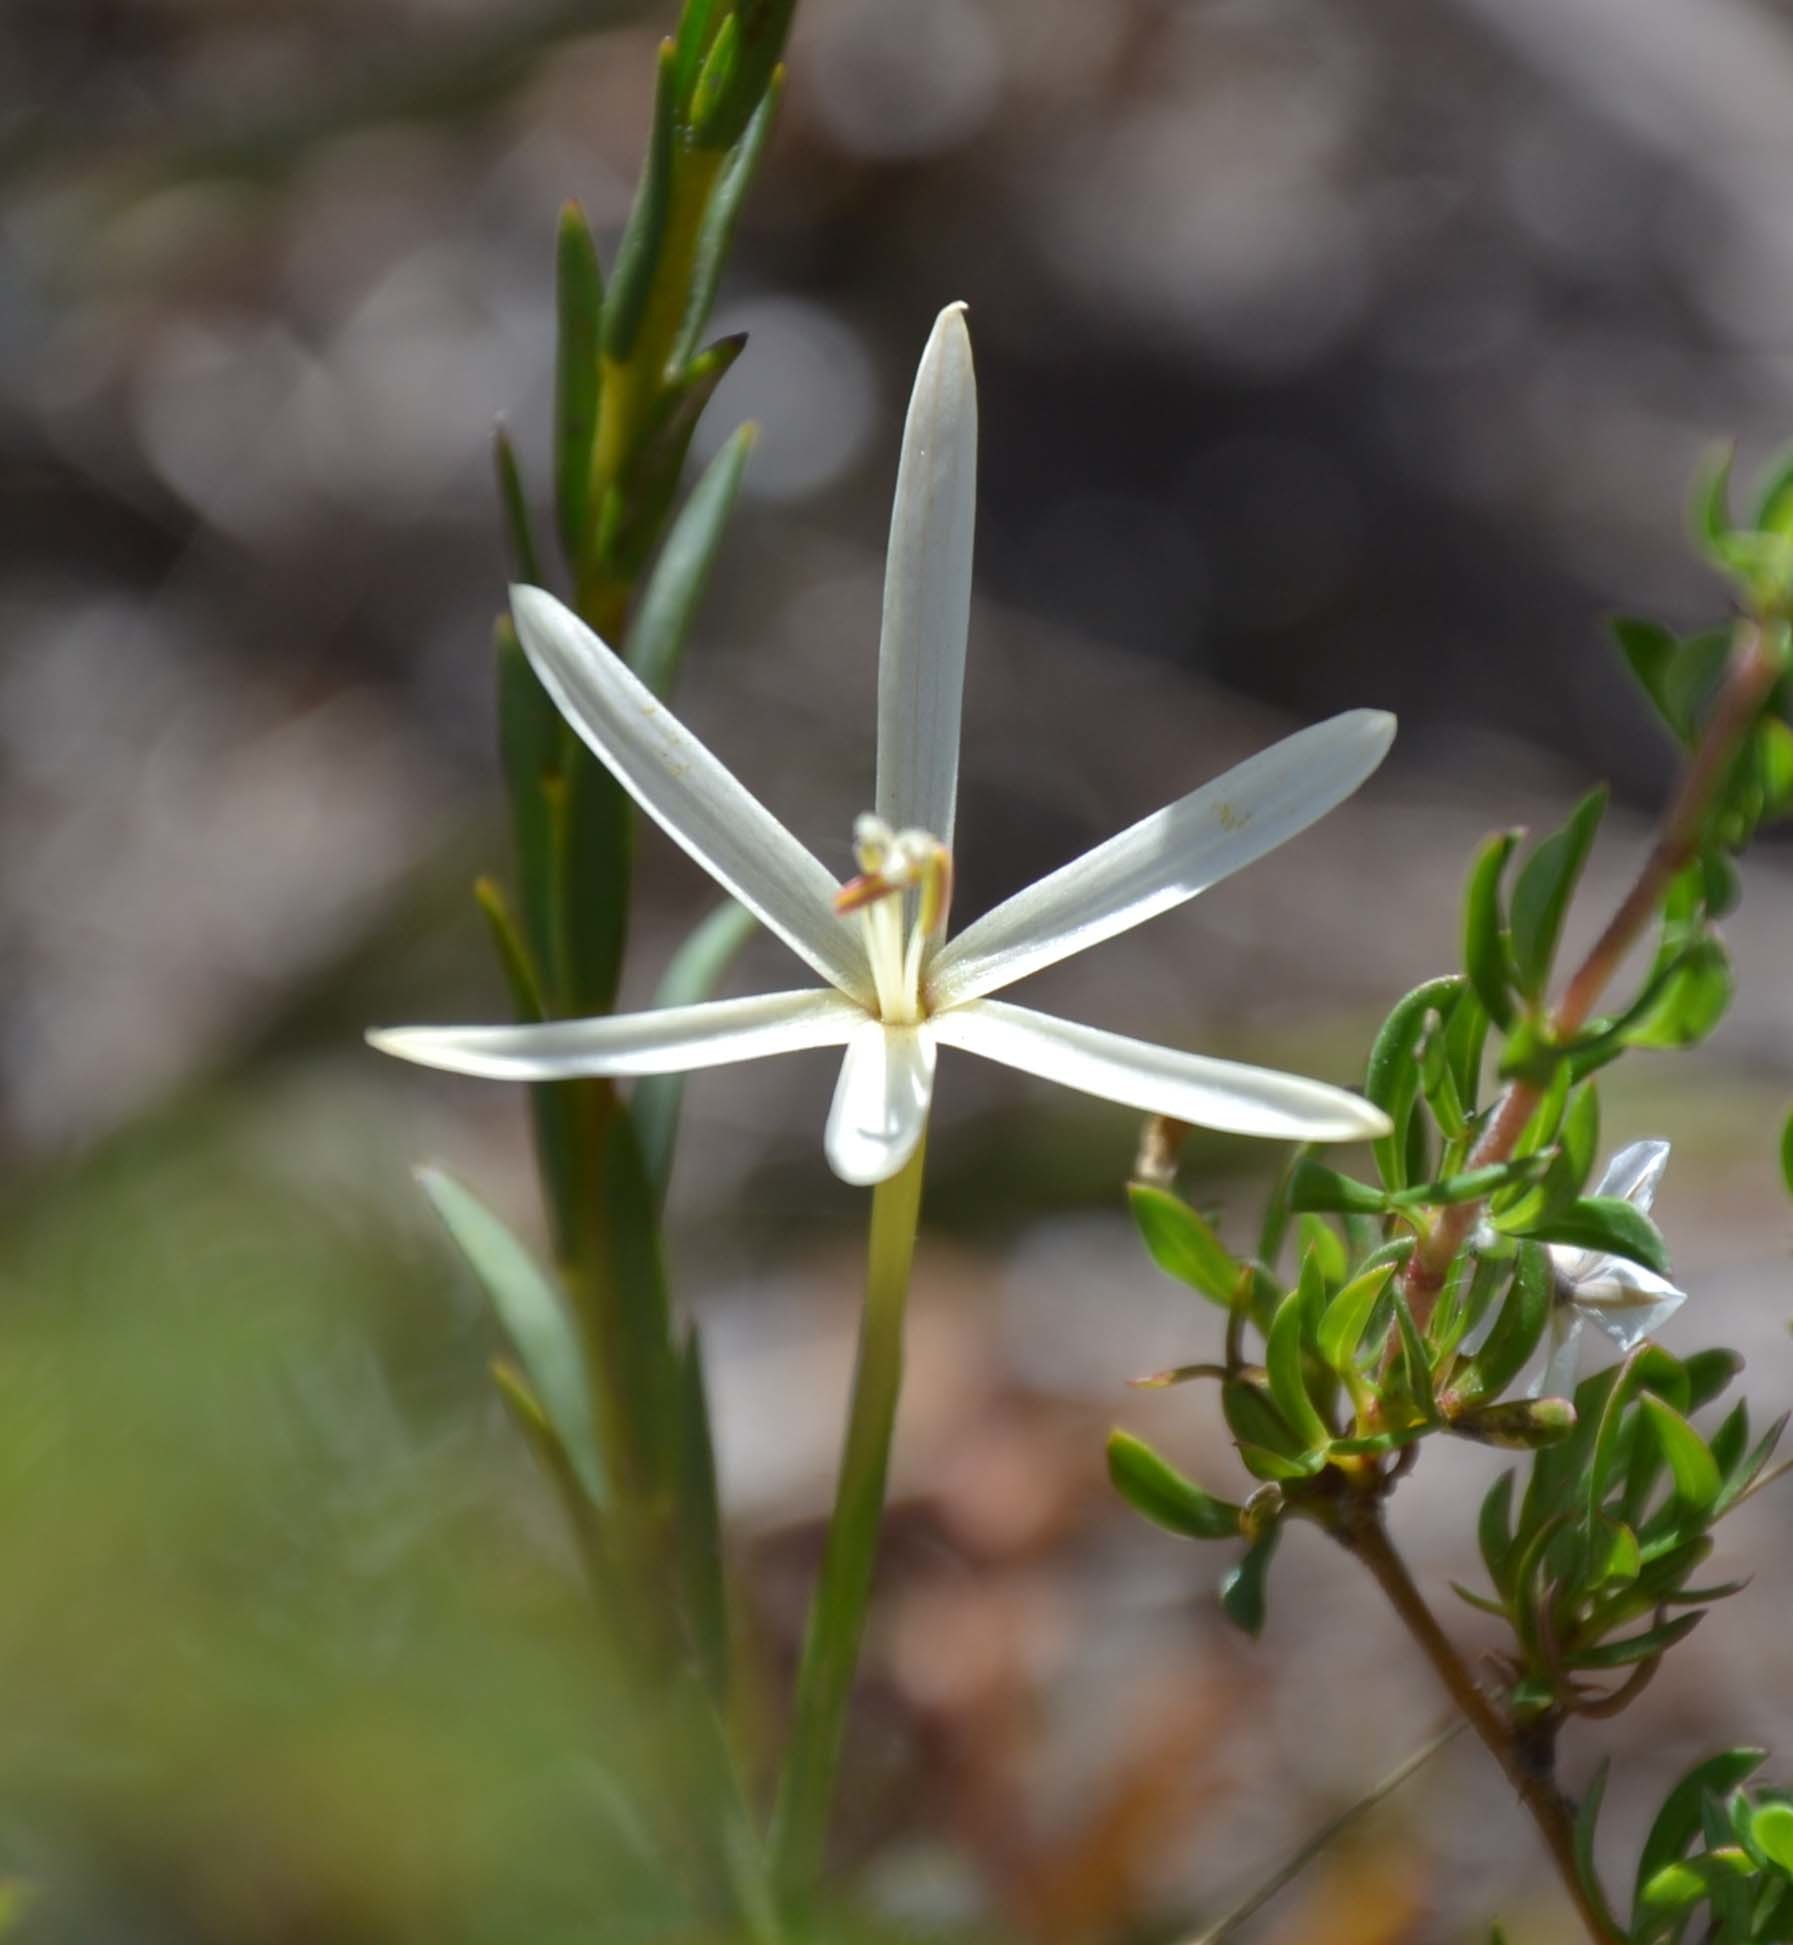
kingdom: Plantae
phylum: Tracheophyta
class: Liliopsida
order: Asparagales
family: Iridaceae
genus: Geissorhiza
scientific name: Geissorhiza tenella
